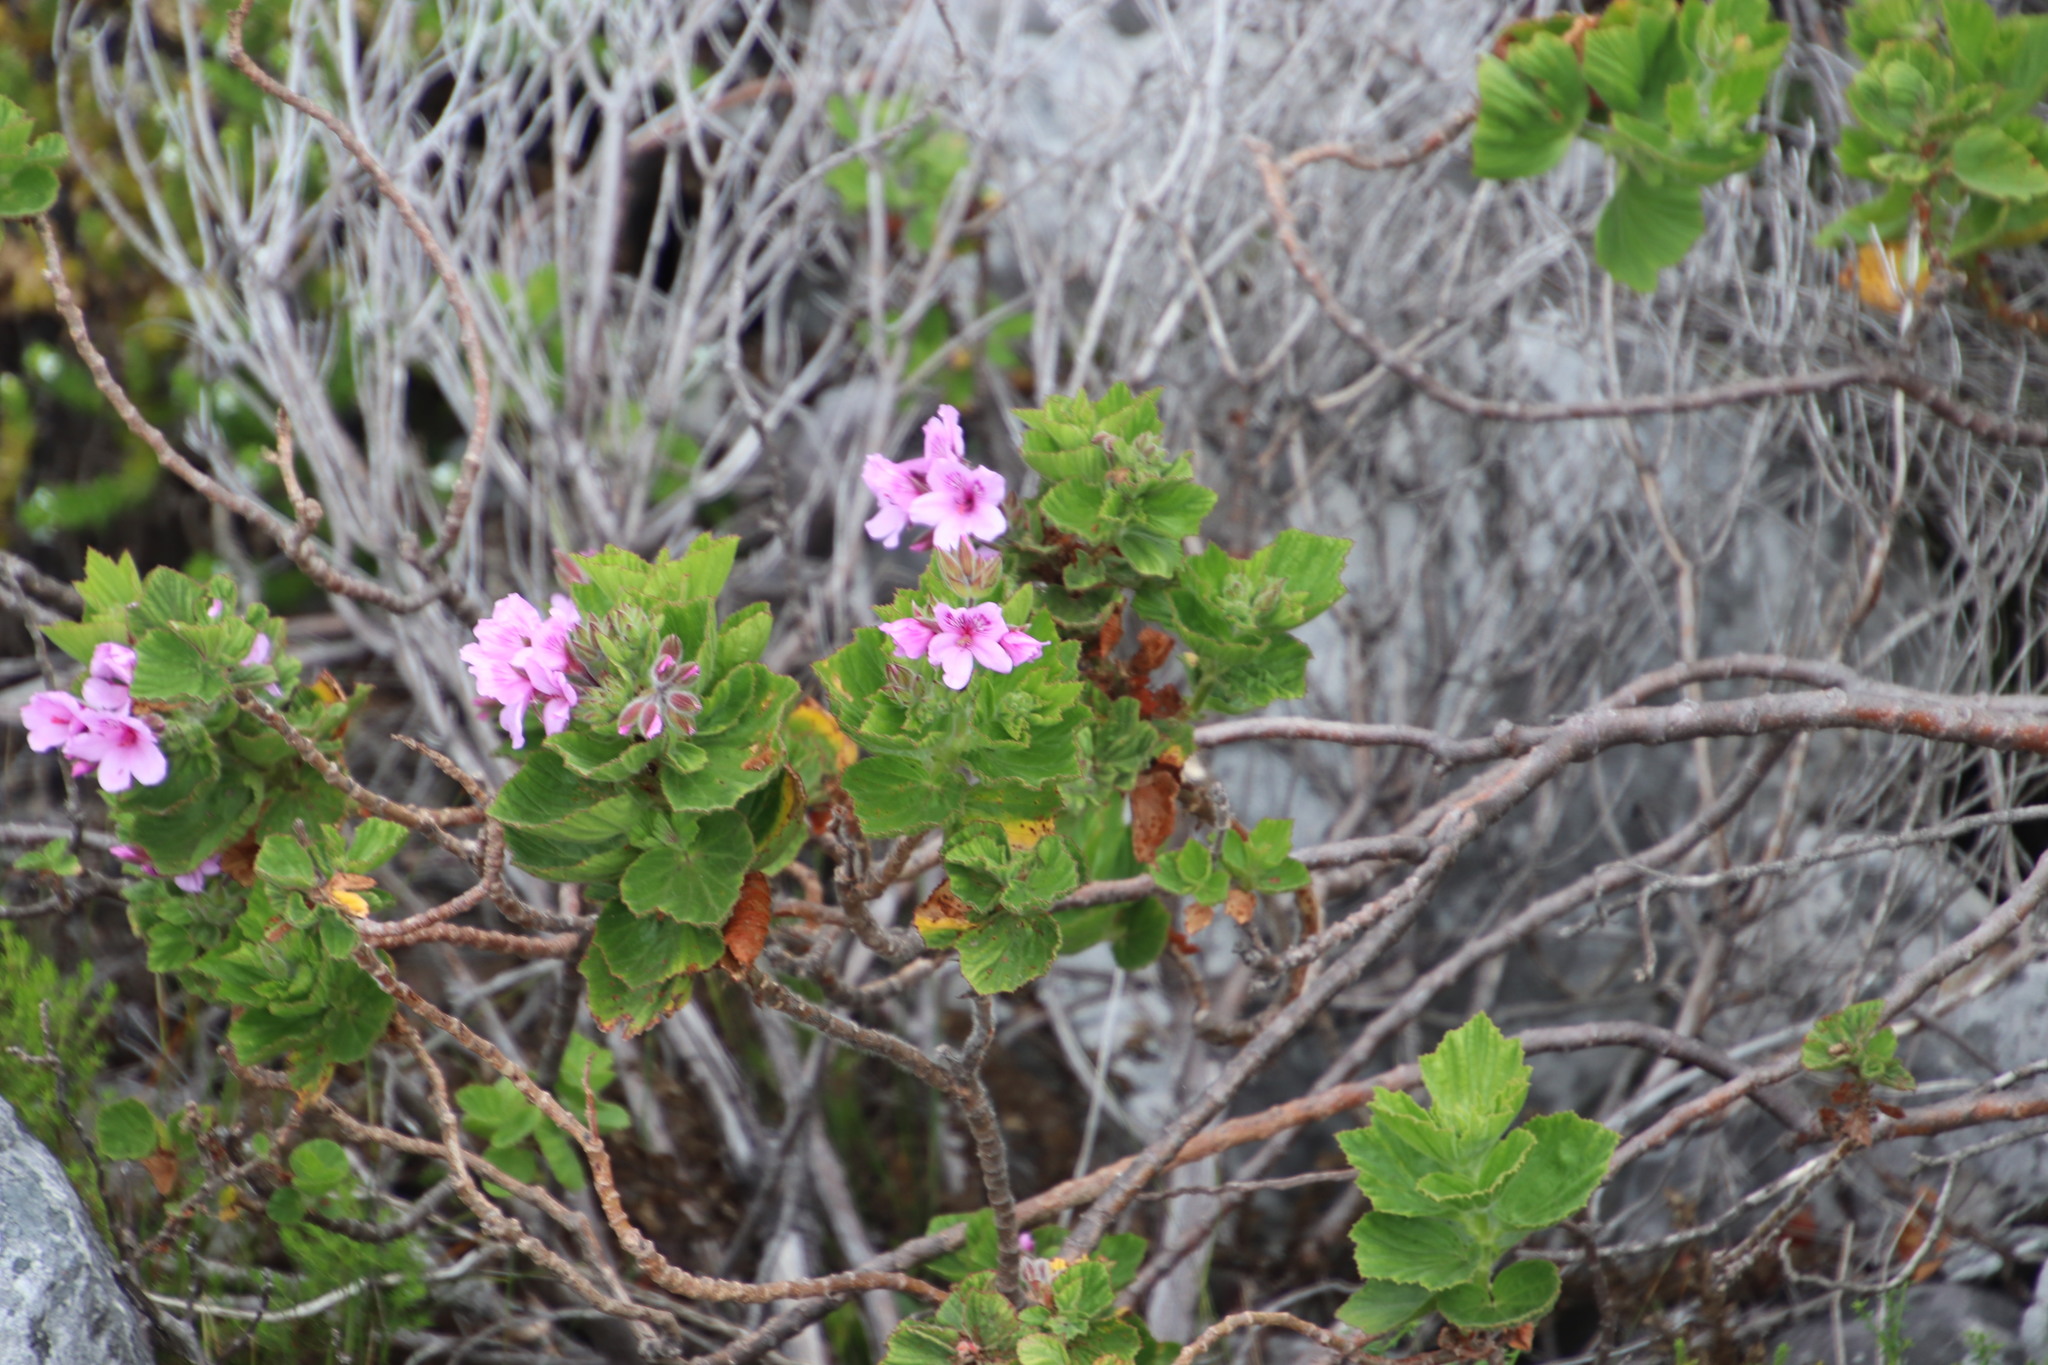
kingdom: Plantae
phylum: Tracheophyta
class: Magnoliopsida
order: Geraniales
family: Geraniaceae
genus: Pelargonium
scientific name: Pelargonium cucullatum
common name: Tree pelargonium
